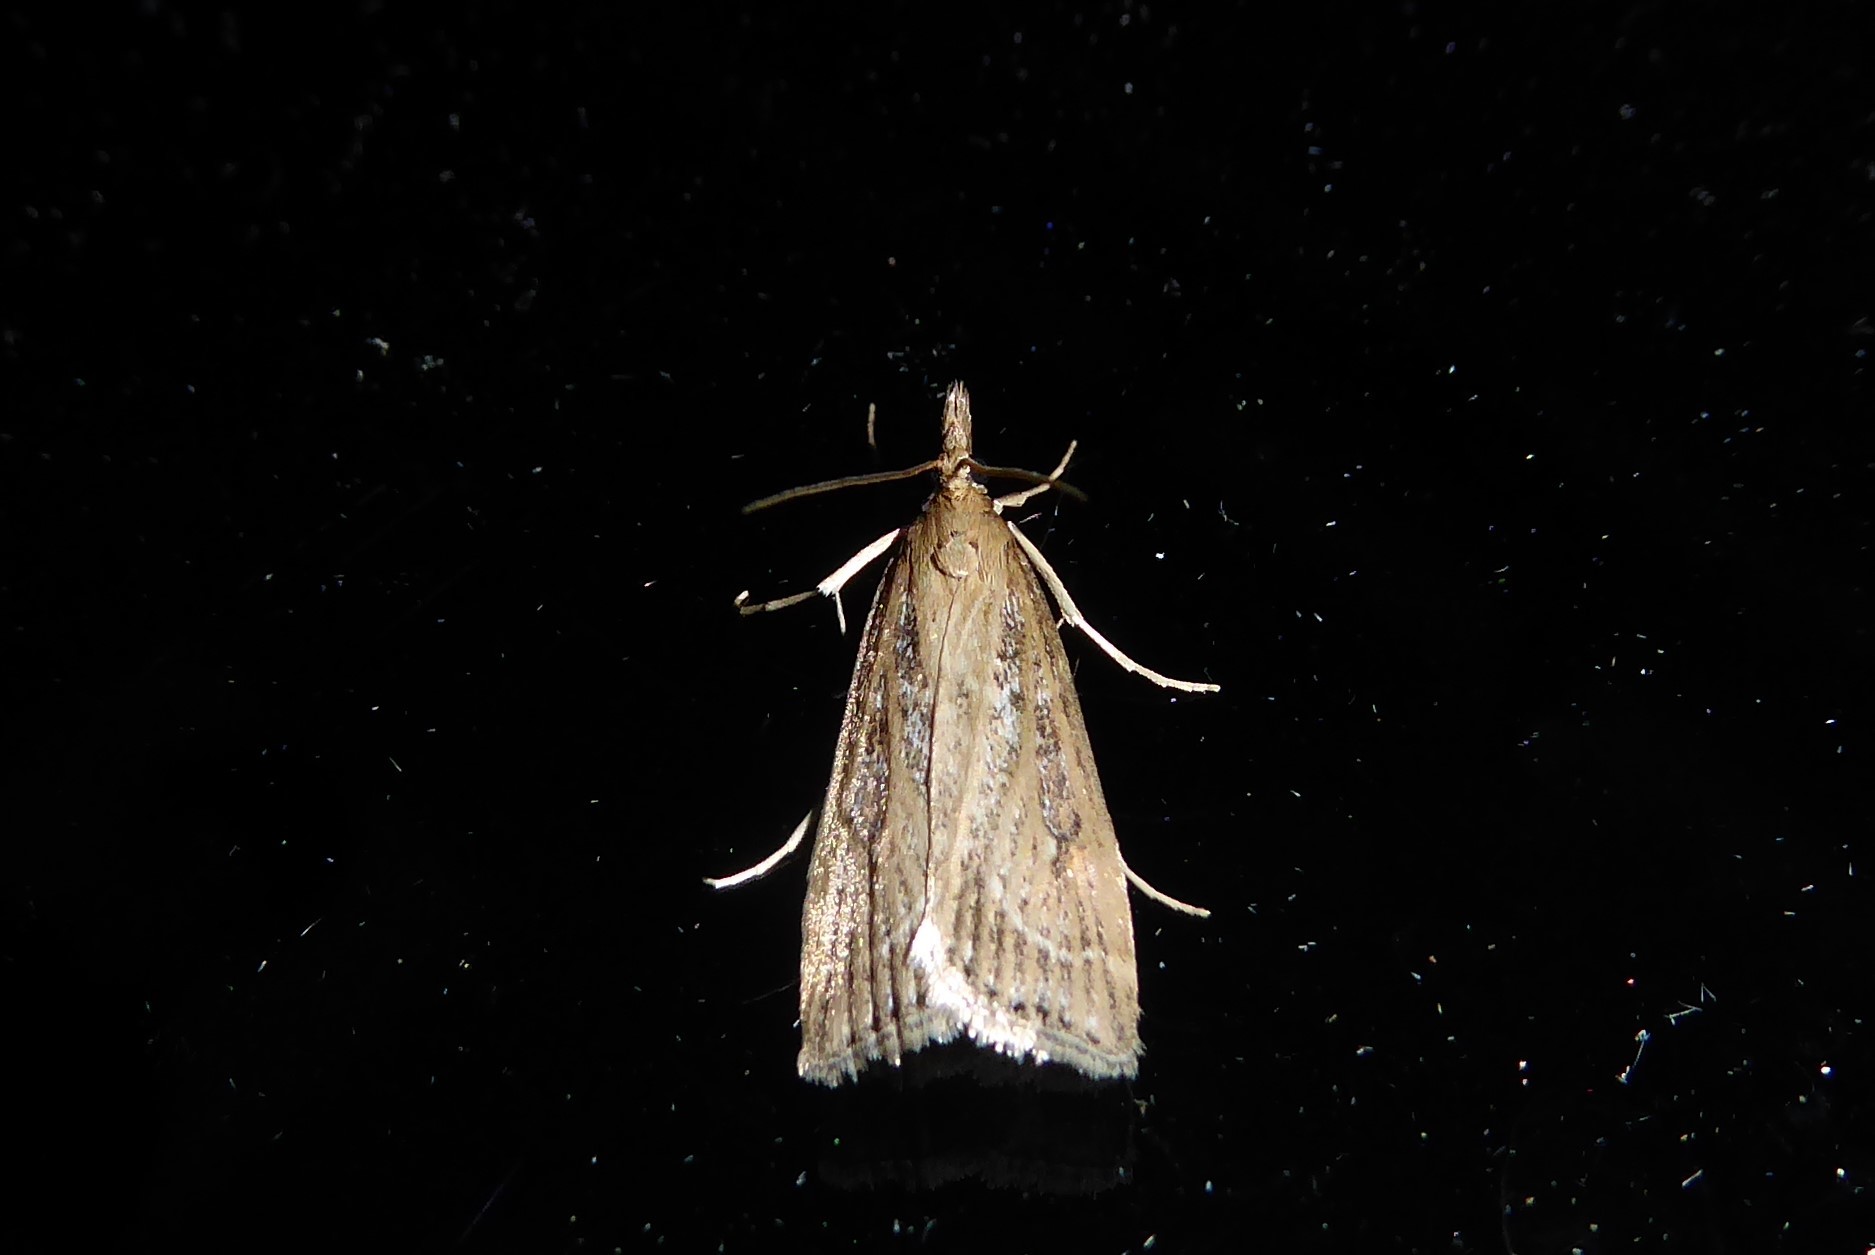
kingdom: Animalia
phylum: Arthropoda
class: Insecta
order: Lepidoptera
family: Crambidae
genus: Eudonia
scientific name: Eudonia octophora
